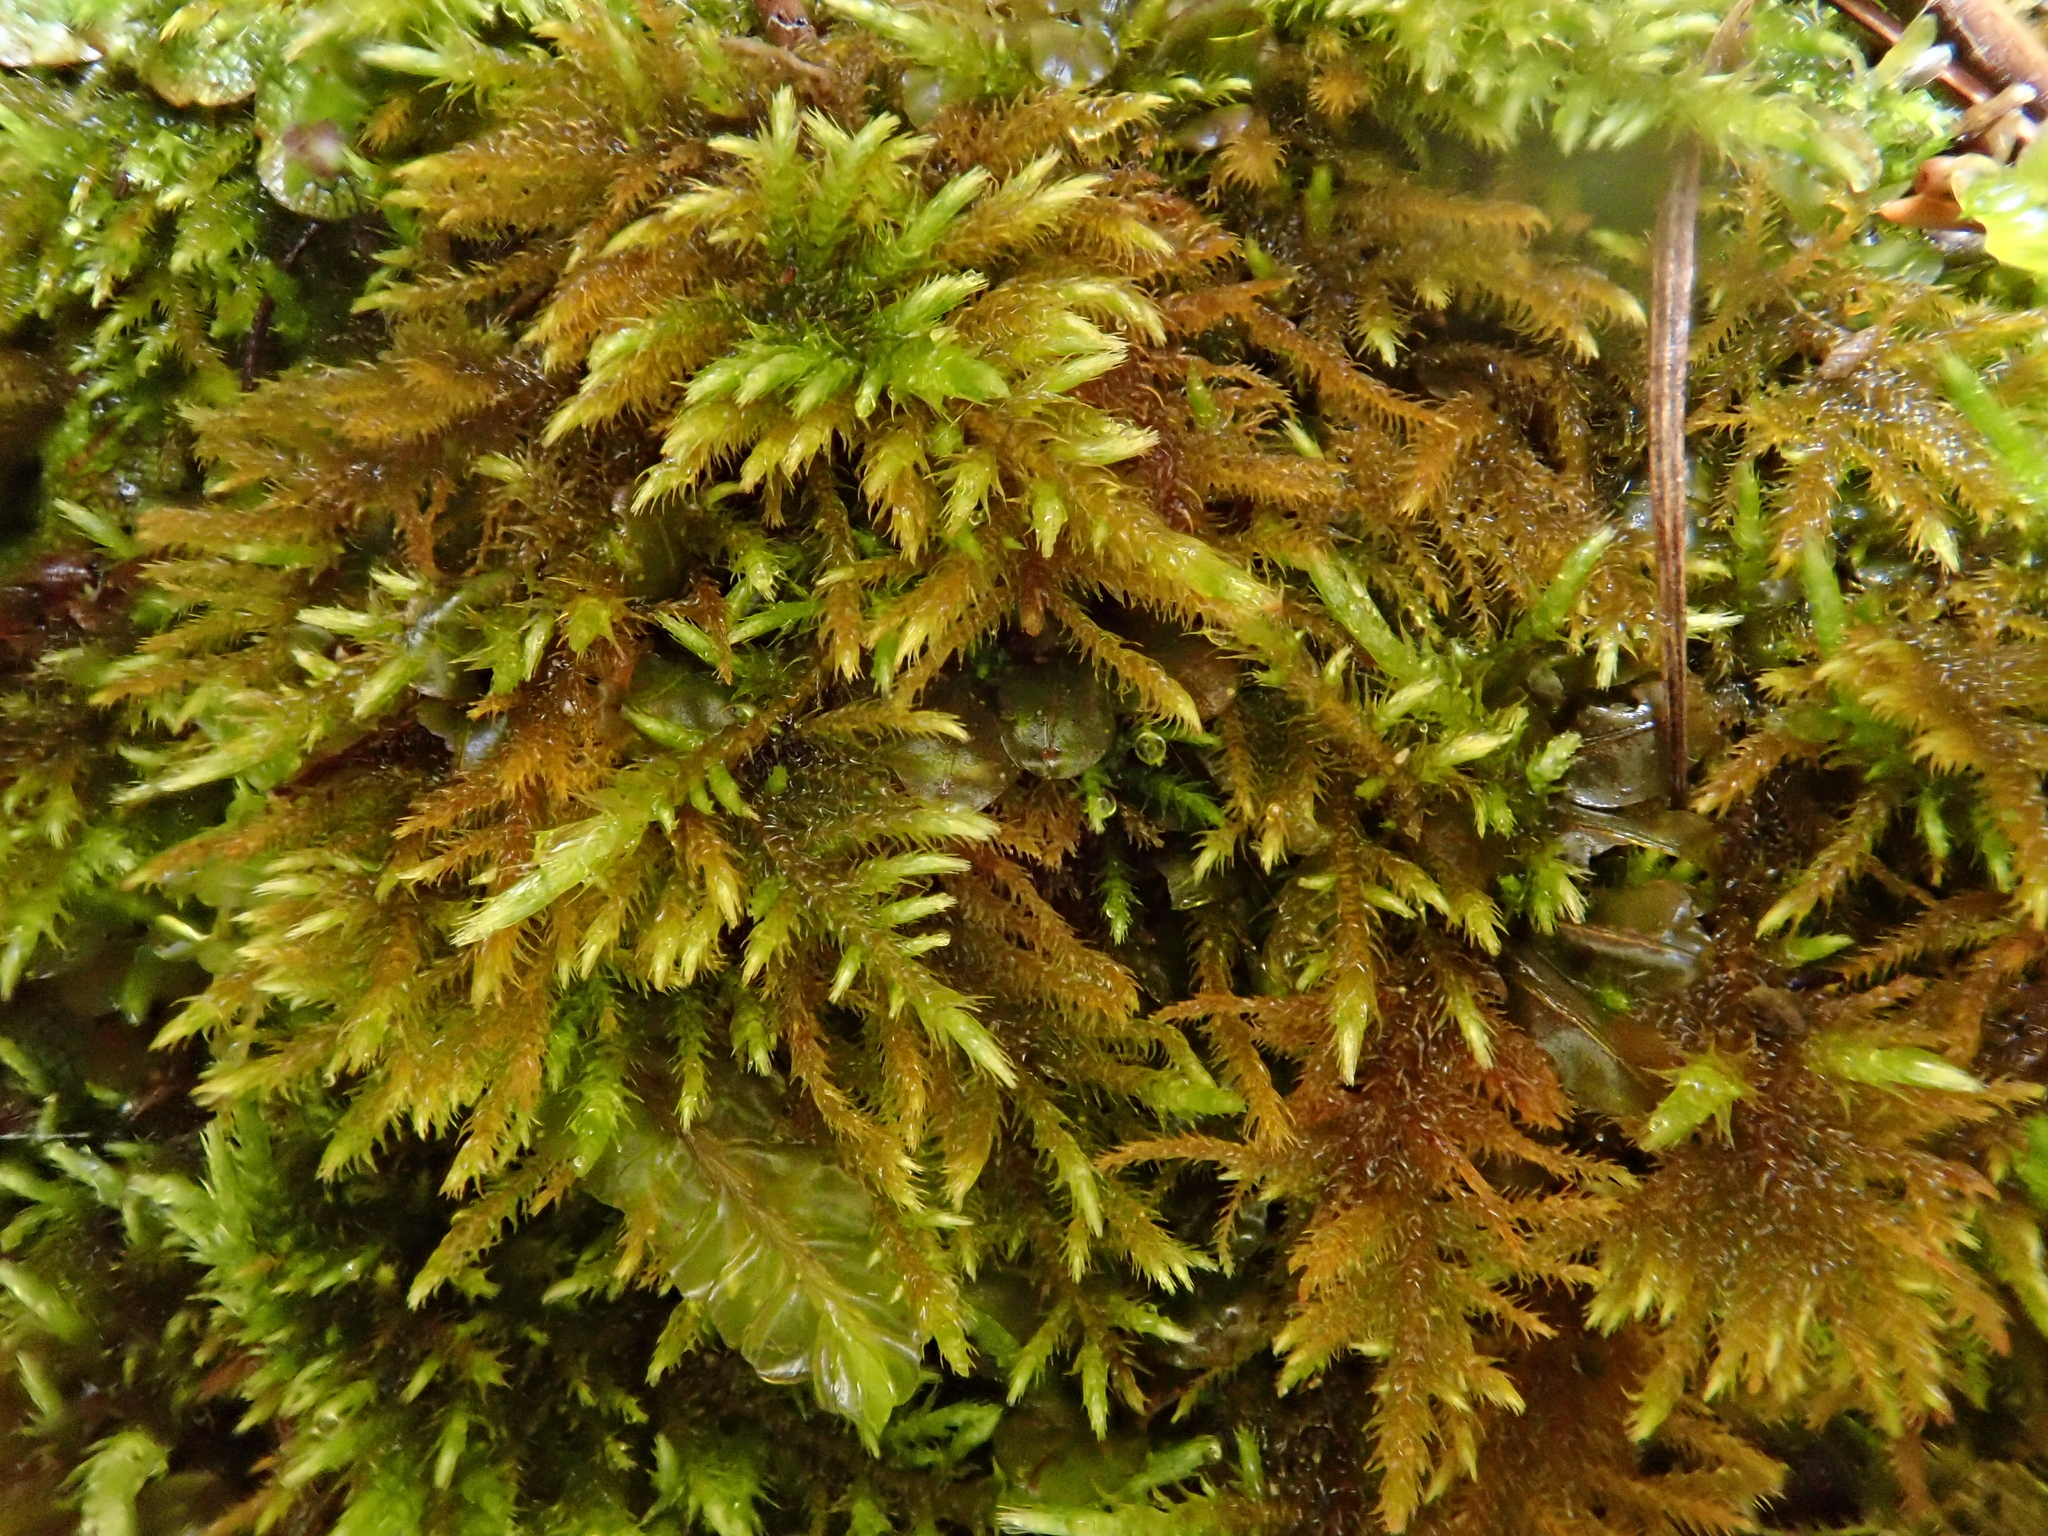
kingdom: Plantae
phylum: Bryophyta
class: Bryopsida
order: Hypnales
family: Amblystegiaceae
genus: Cratoneuron
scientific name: Cratoneuron filicinum
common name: Fern-leaved hook moss
